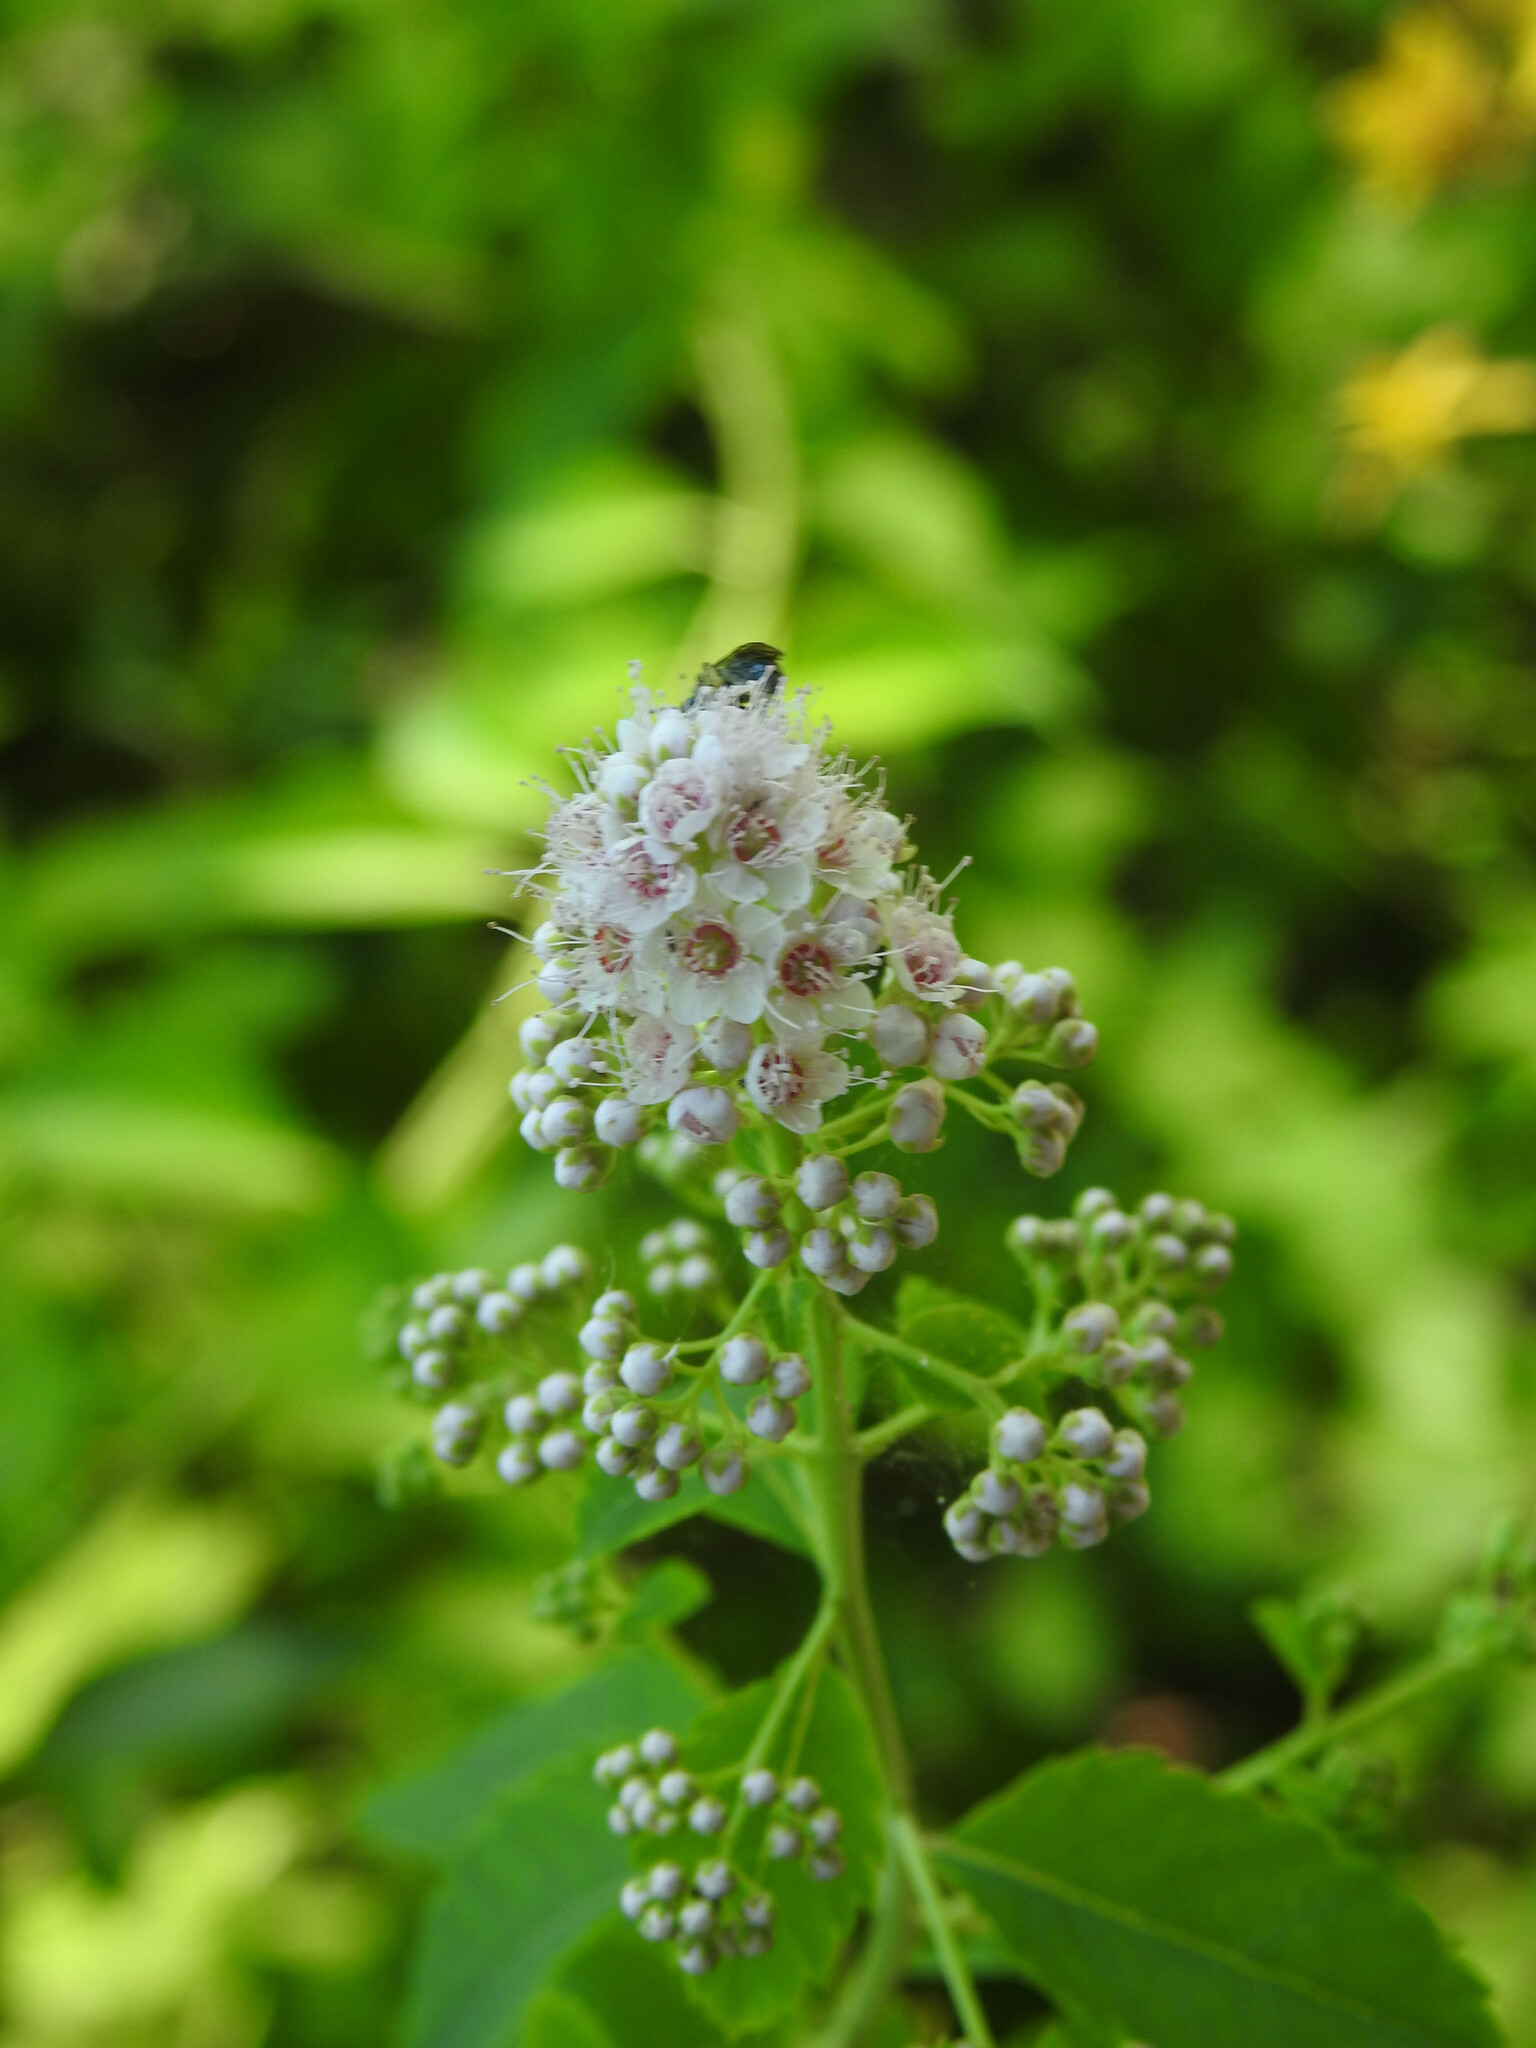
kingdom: Plantae
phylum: Tracheophyta
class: Magnoliopsida
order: Rosales
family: Rosaceae
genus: Spiraea
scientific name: Spiraea alba
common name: Pale bridewort
